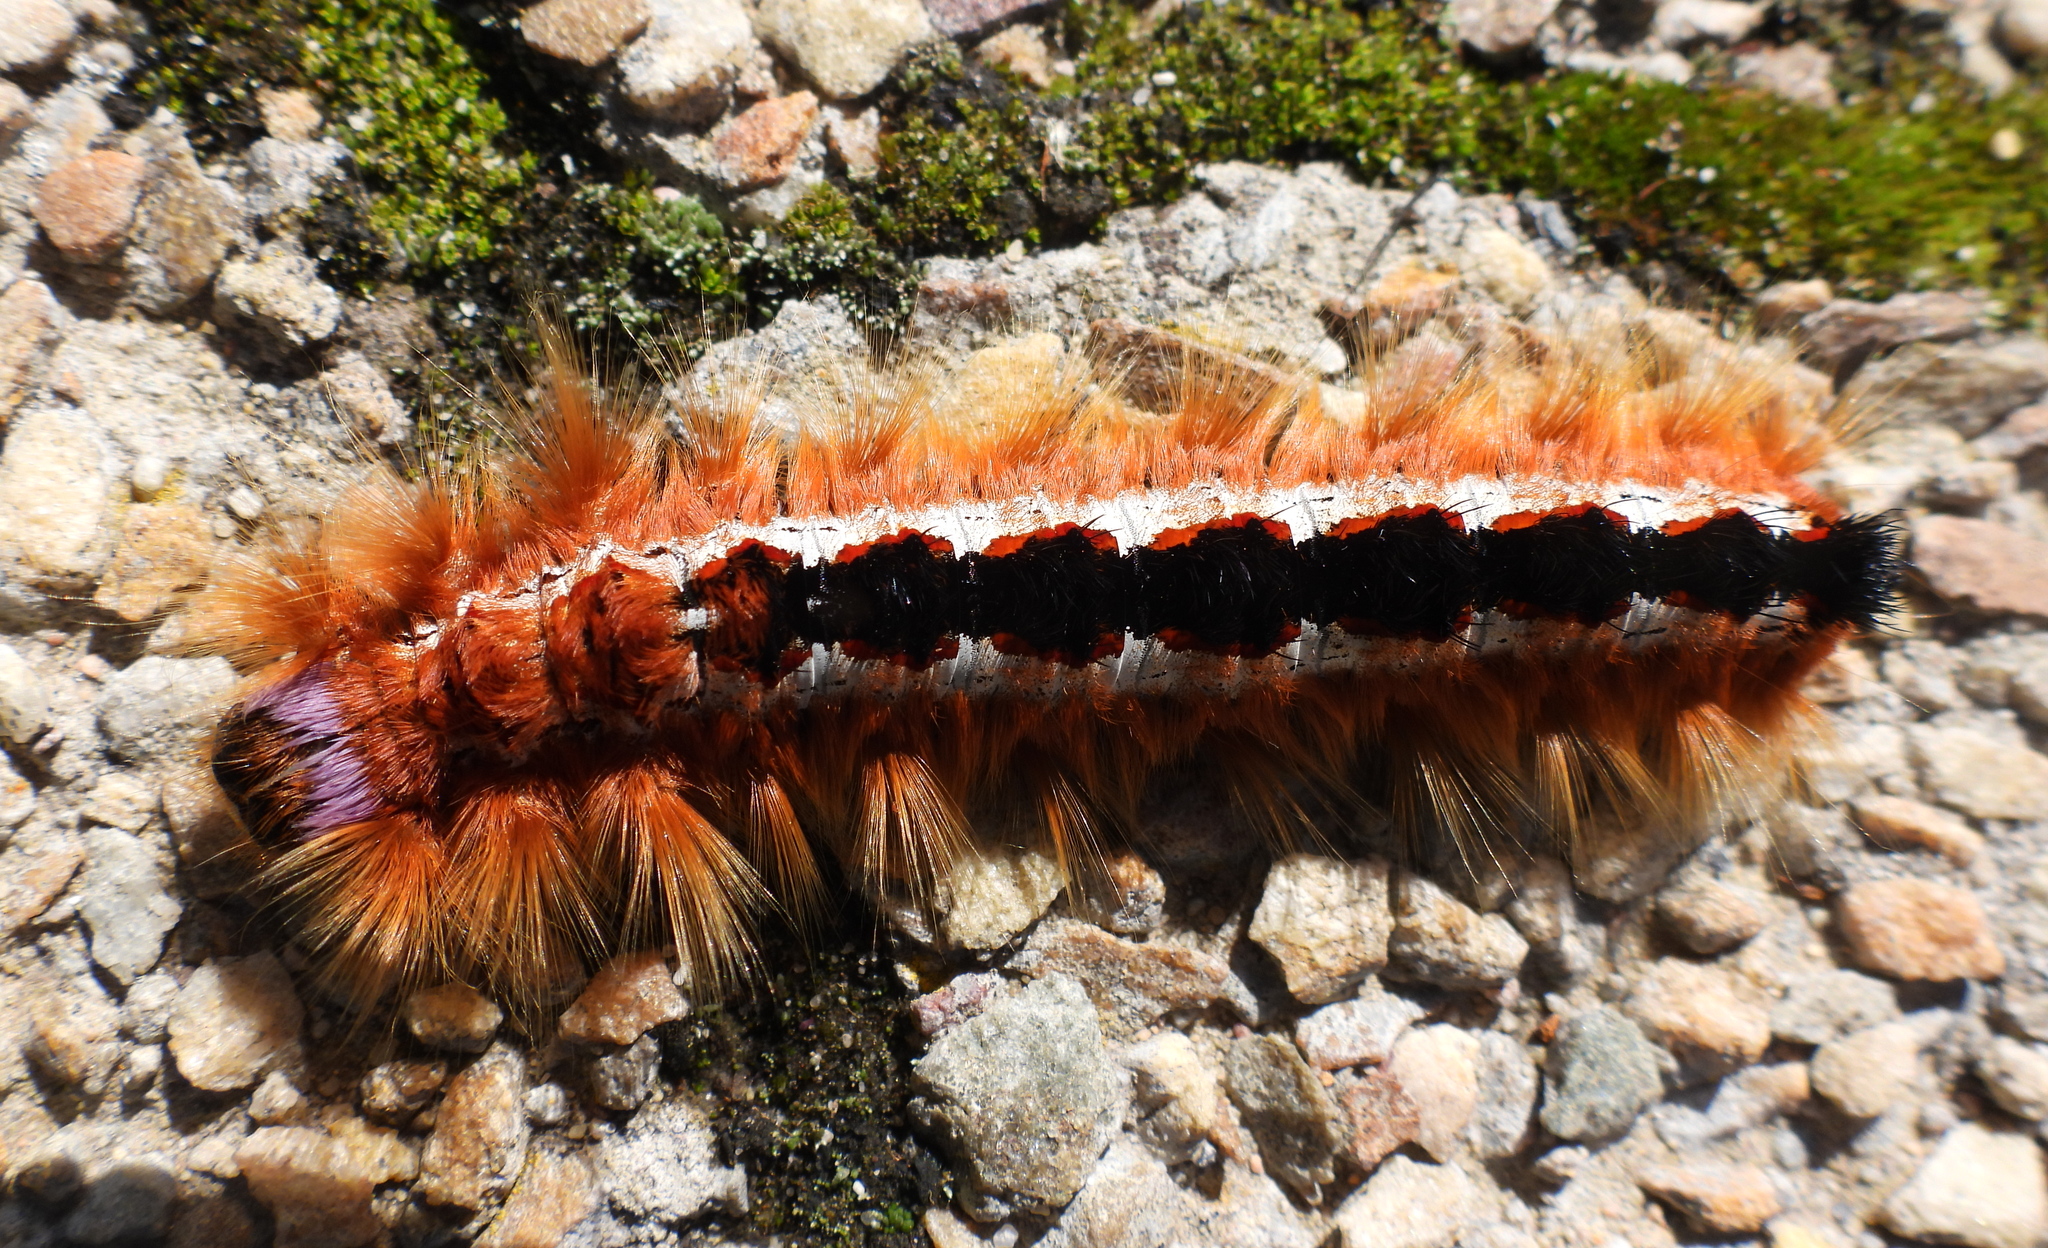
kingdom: Animalia
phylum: Arthropoda
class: Insecta
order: Lepidoptera
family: Lasiocampidae
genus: Eutricha
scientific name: Eutricha capensis
